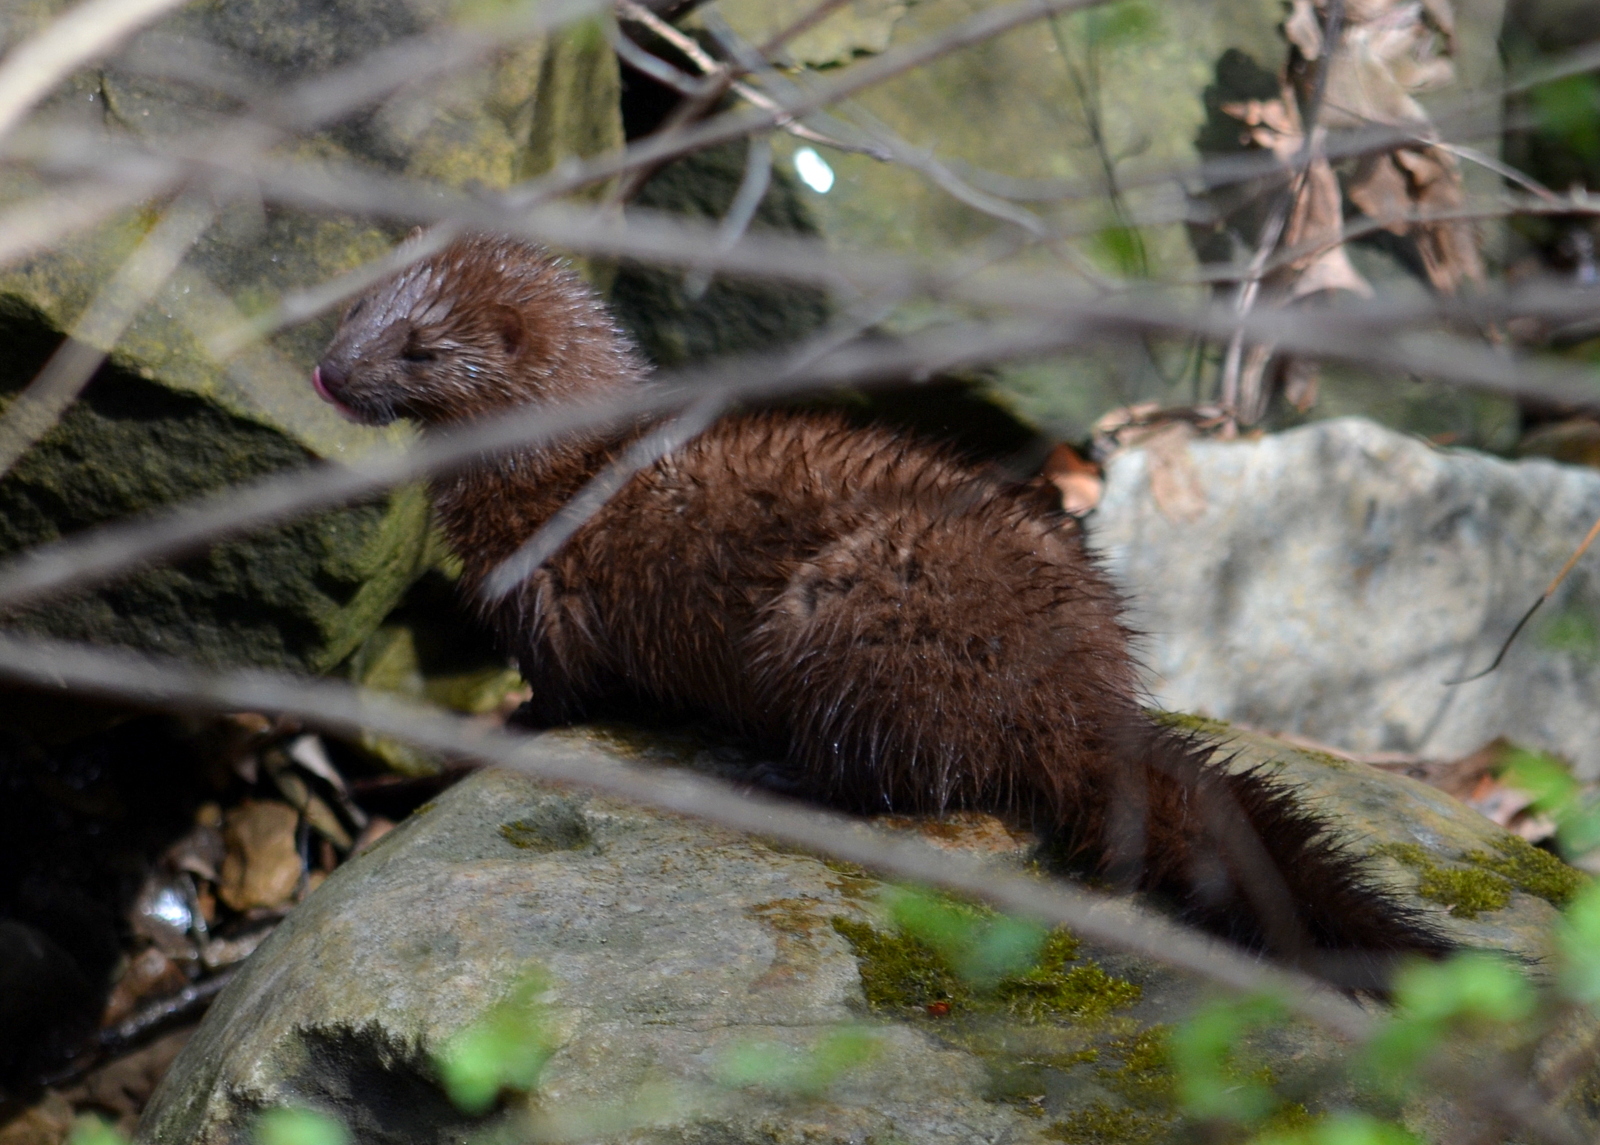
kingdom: Animalia
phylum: Chordata
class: Mammalia
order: Carnivora
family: Mustelidae
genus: Mustela
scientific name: Mustela
